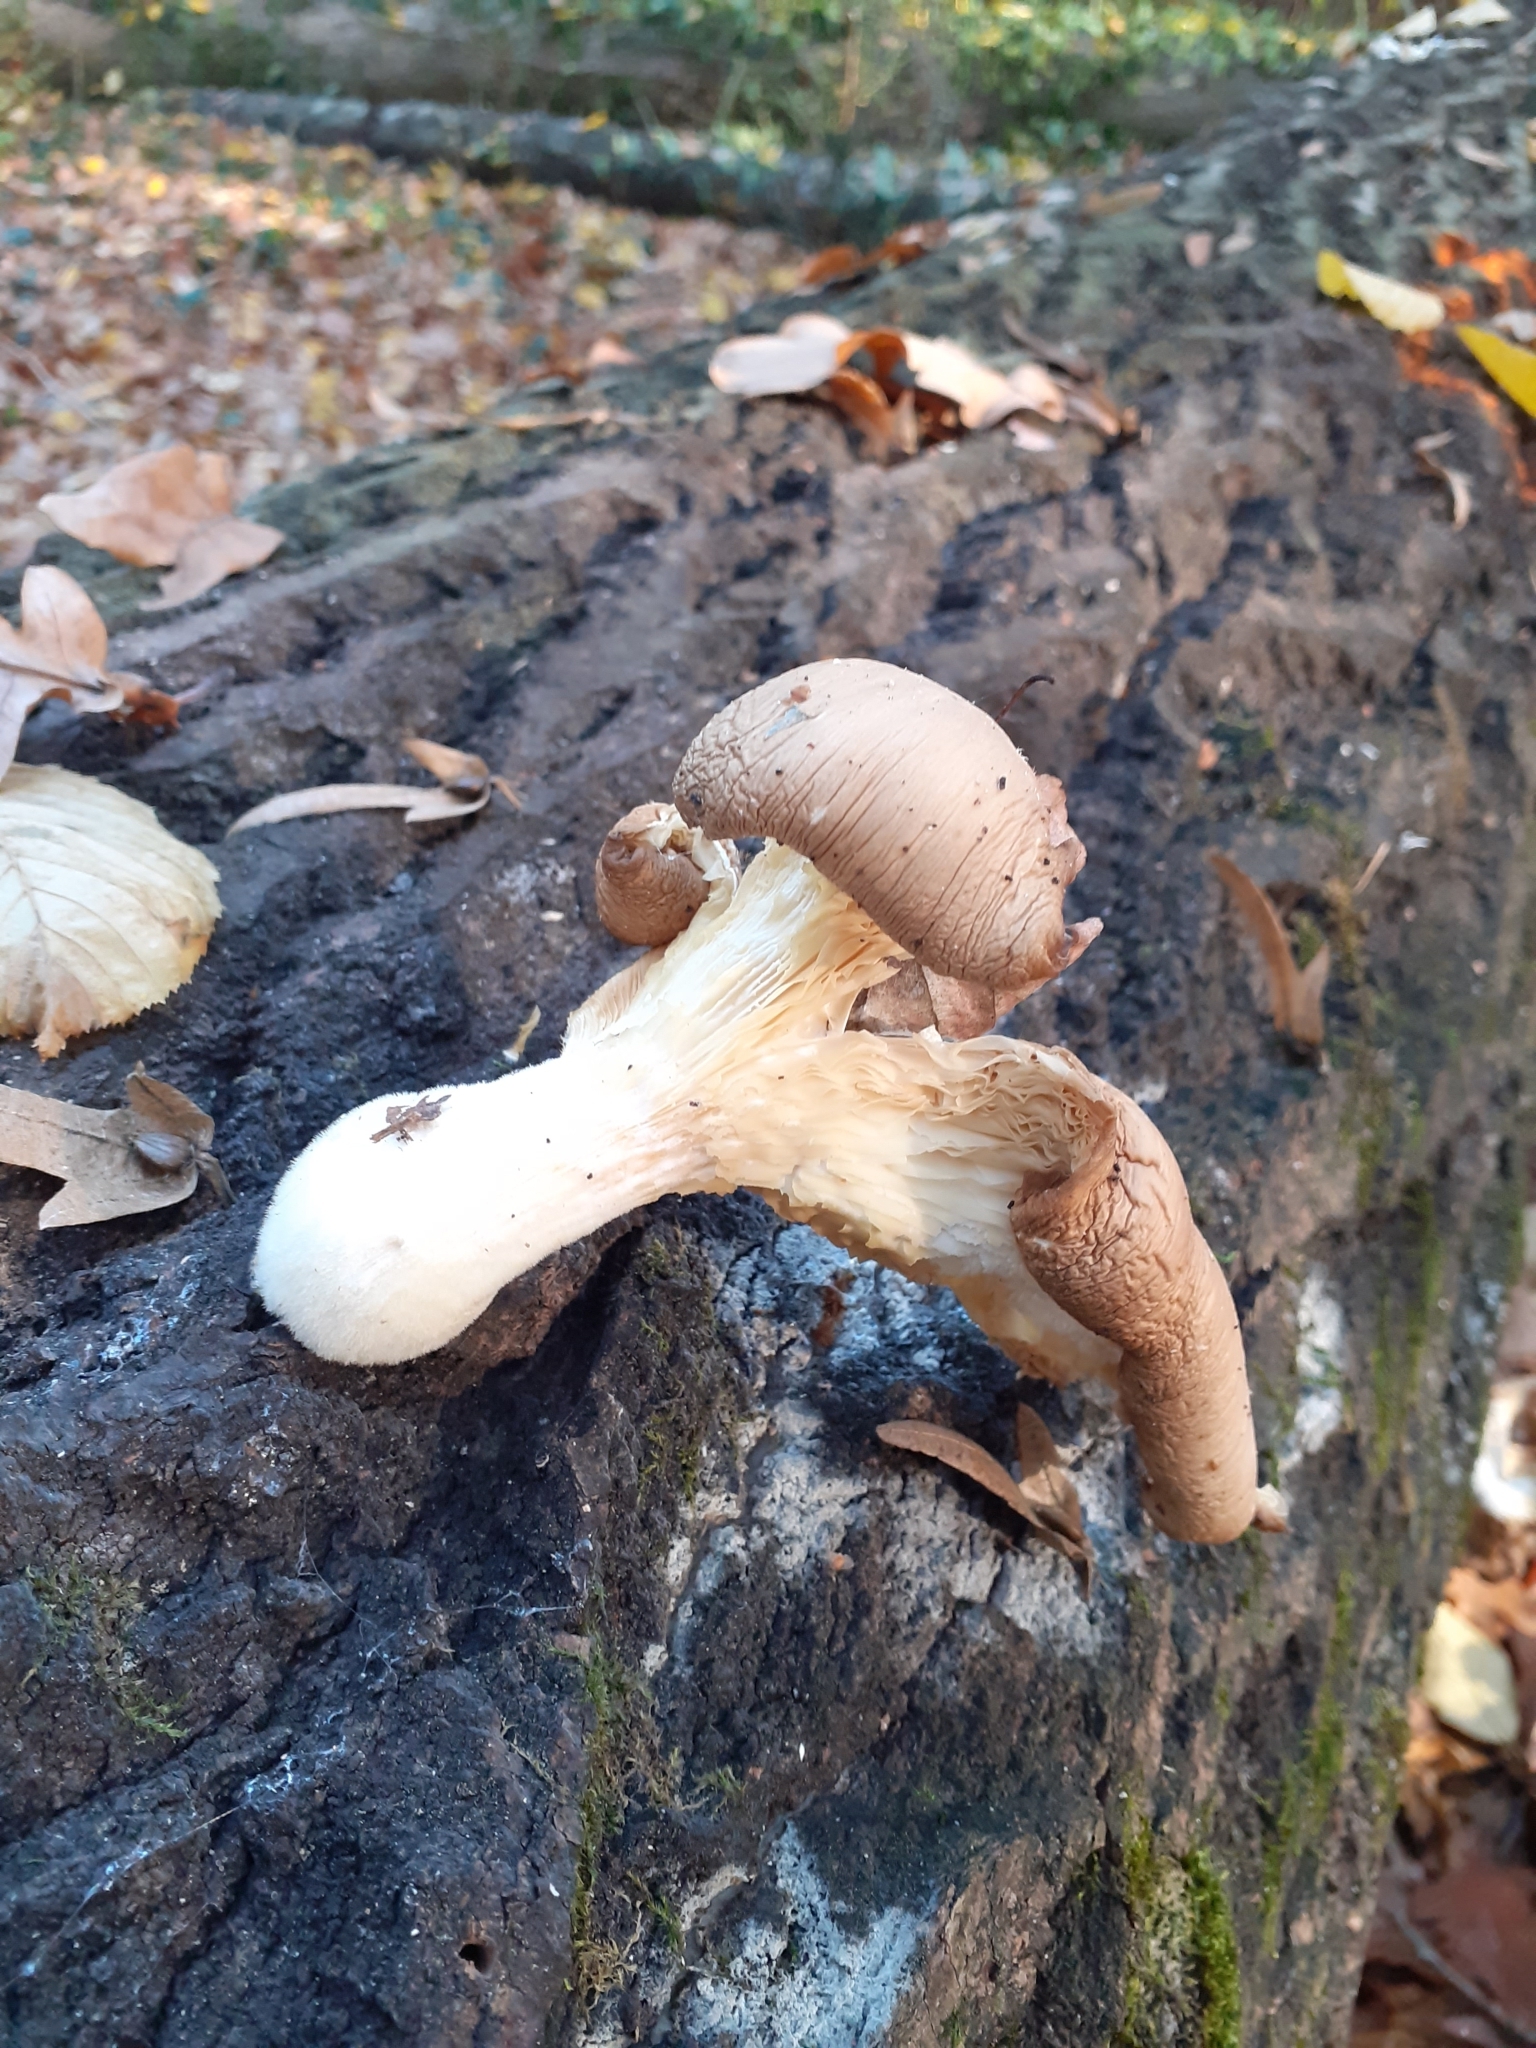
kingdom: Fungi
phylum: Basidiomycota
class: Agaricomycetes
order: Agaricales
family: Pleurotaceae
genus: Pleurotus
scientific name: Pleurotus ostreatus
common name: Oyster mushroom
